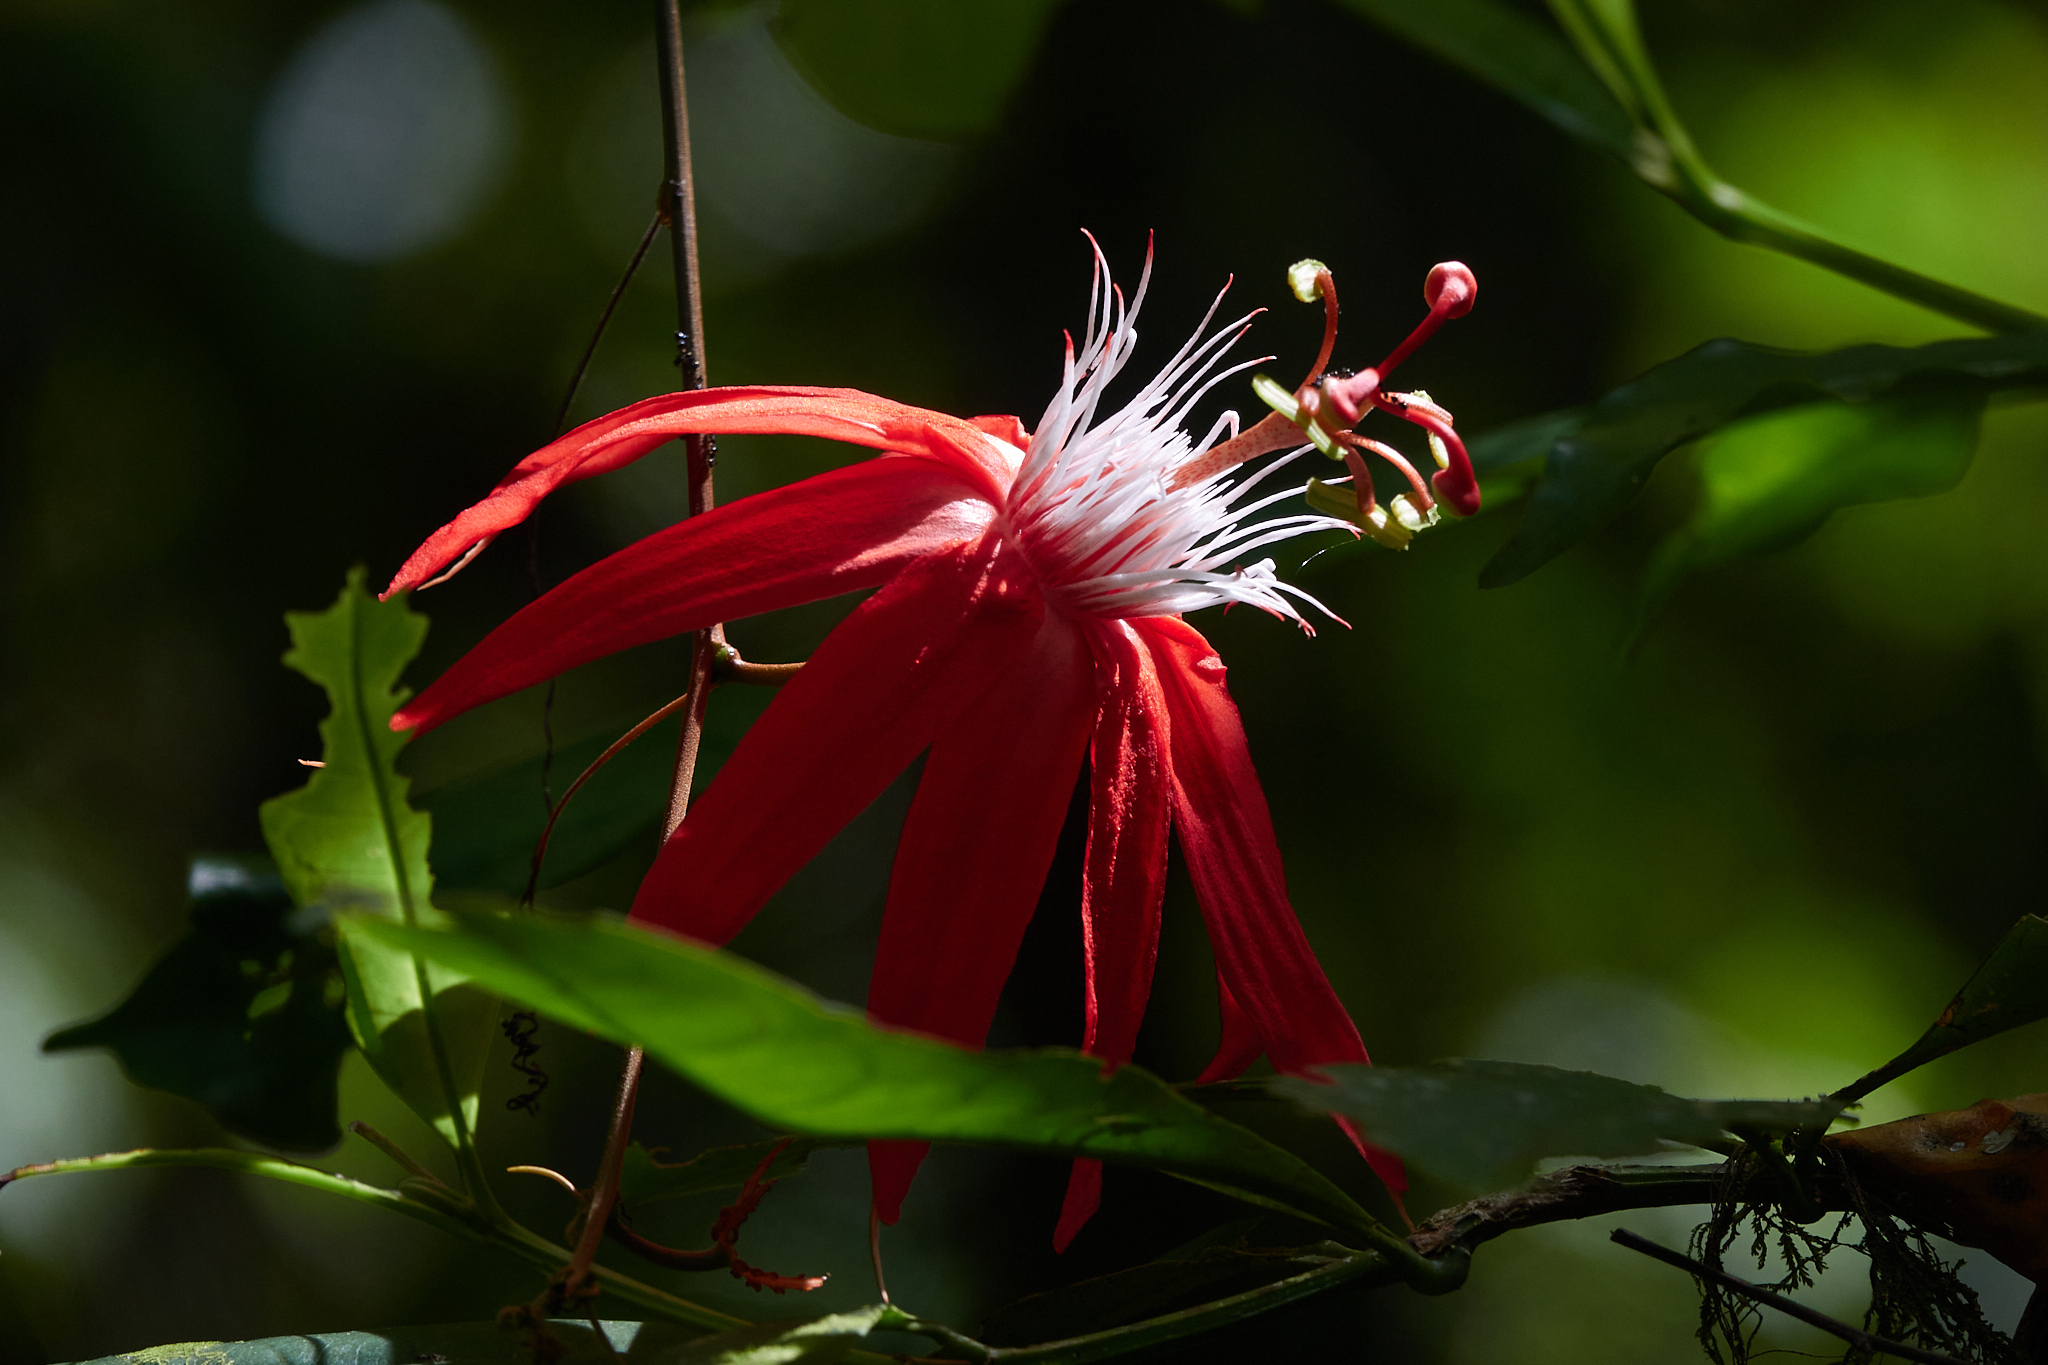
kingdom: Plantae
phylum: Tracheophyta
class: Magnoliopsida
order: Malpighiales
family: Passifloraceae
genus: Passiflora
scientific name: Passiflora vitifolia
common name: Perfumed passionflower
